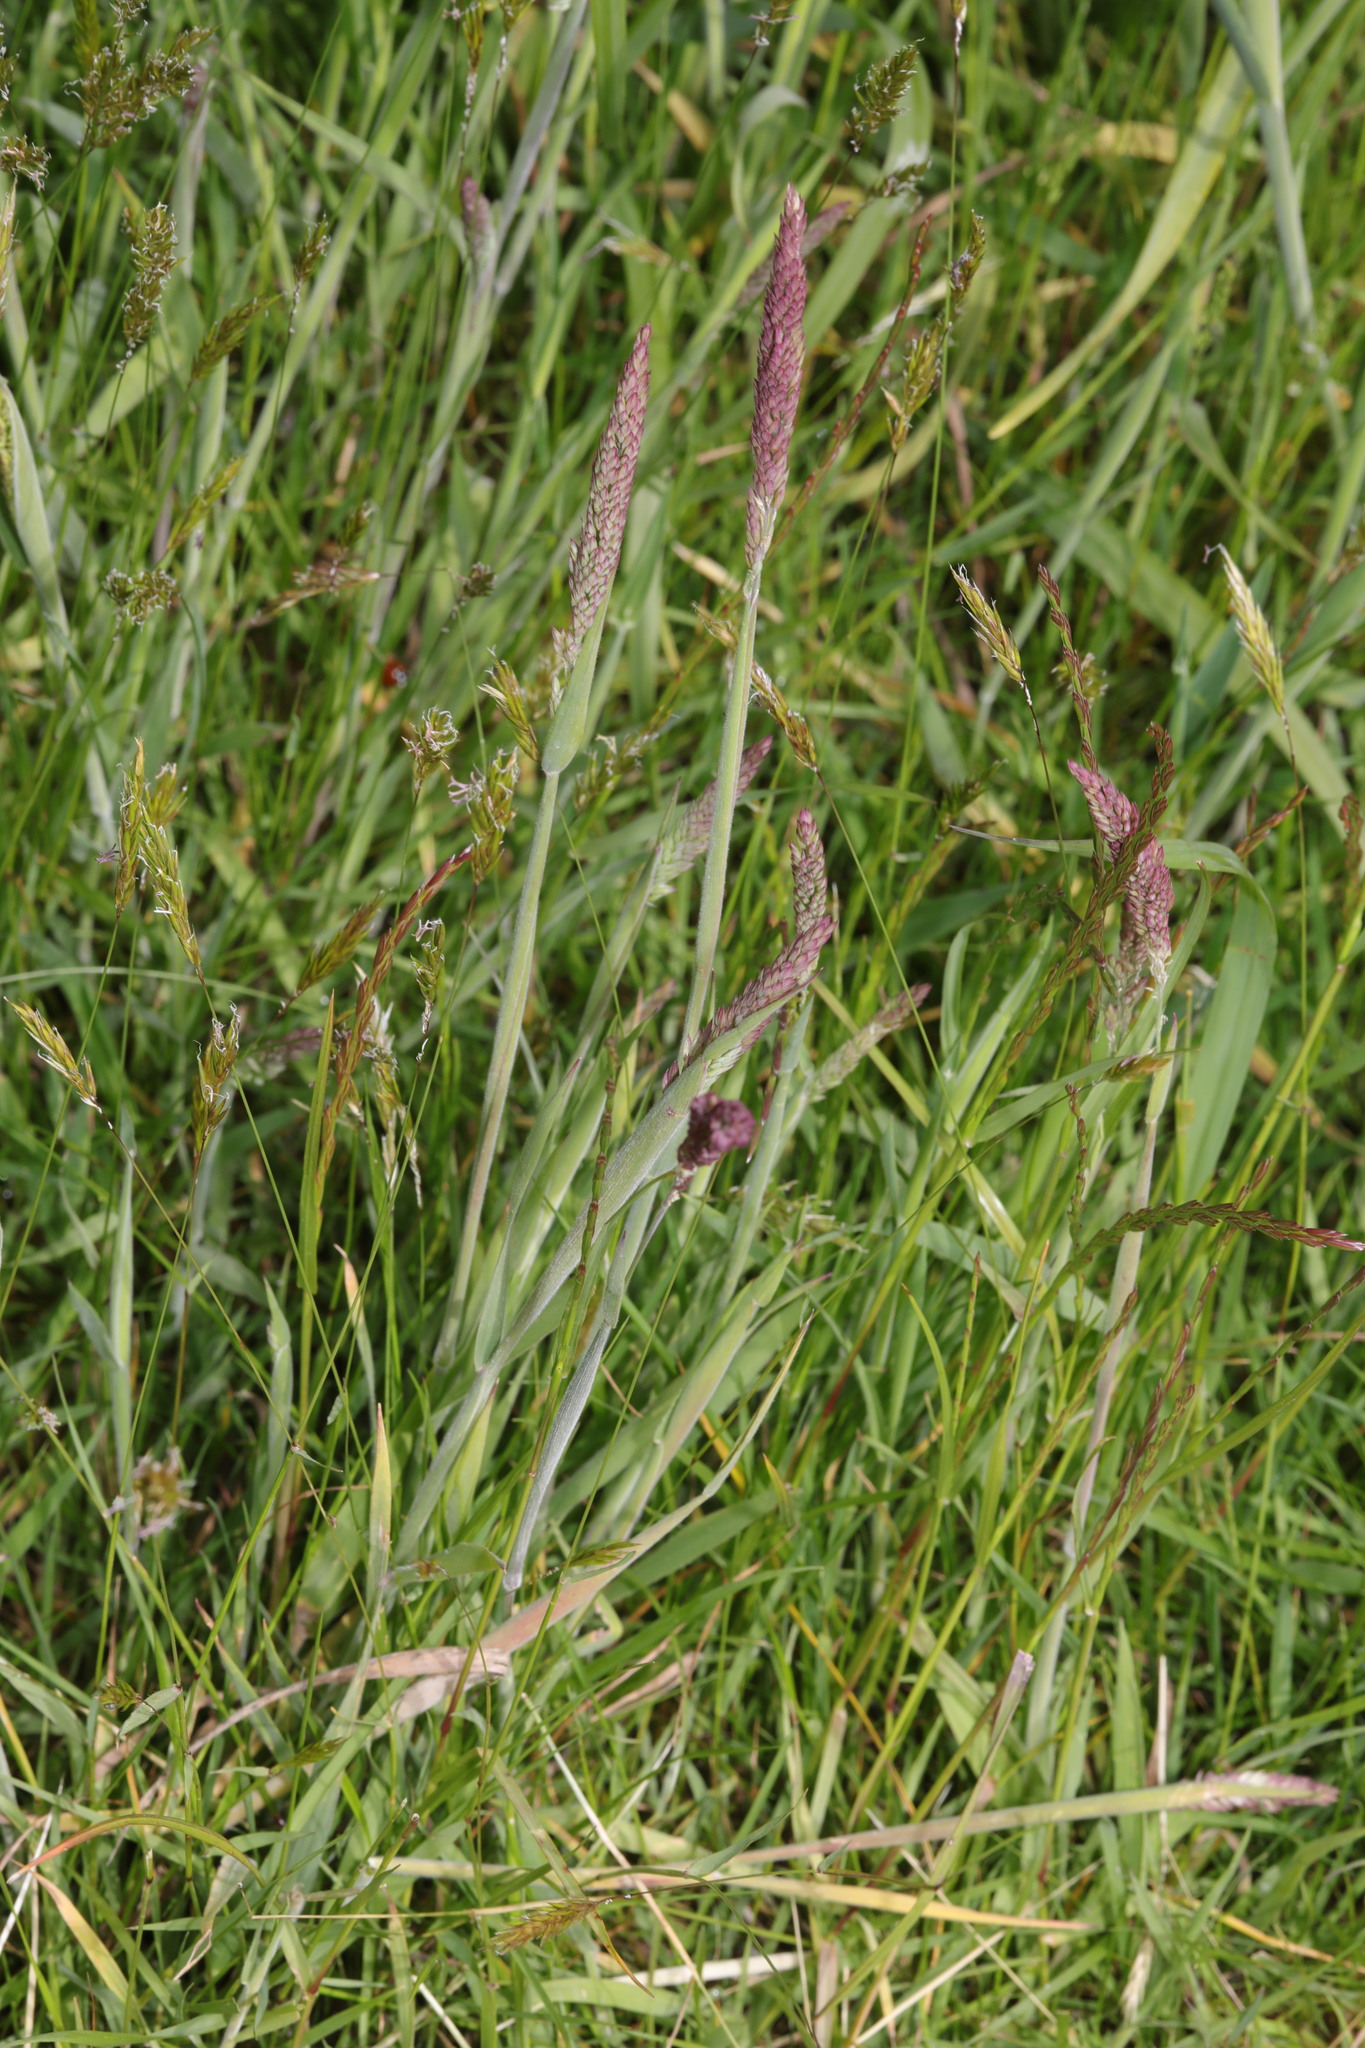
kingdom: Plantae
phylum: Tracheophyta
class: Liliopsida
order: Poales
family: Poaceae
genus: Holcus
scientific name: Holcus lanatus
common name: Yorkshire-fog
